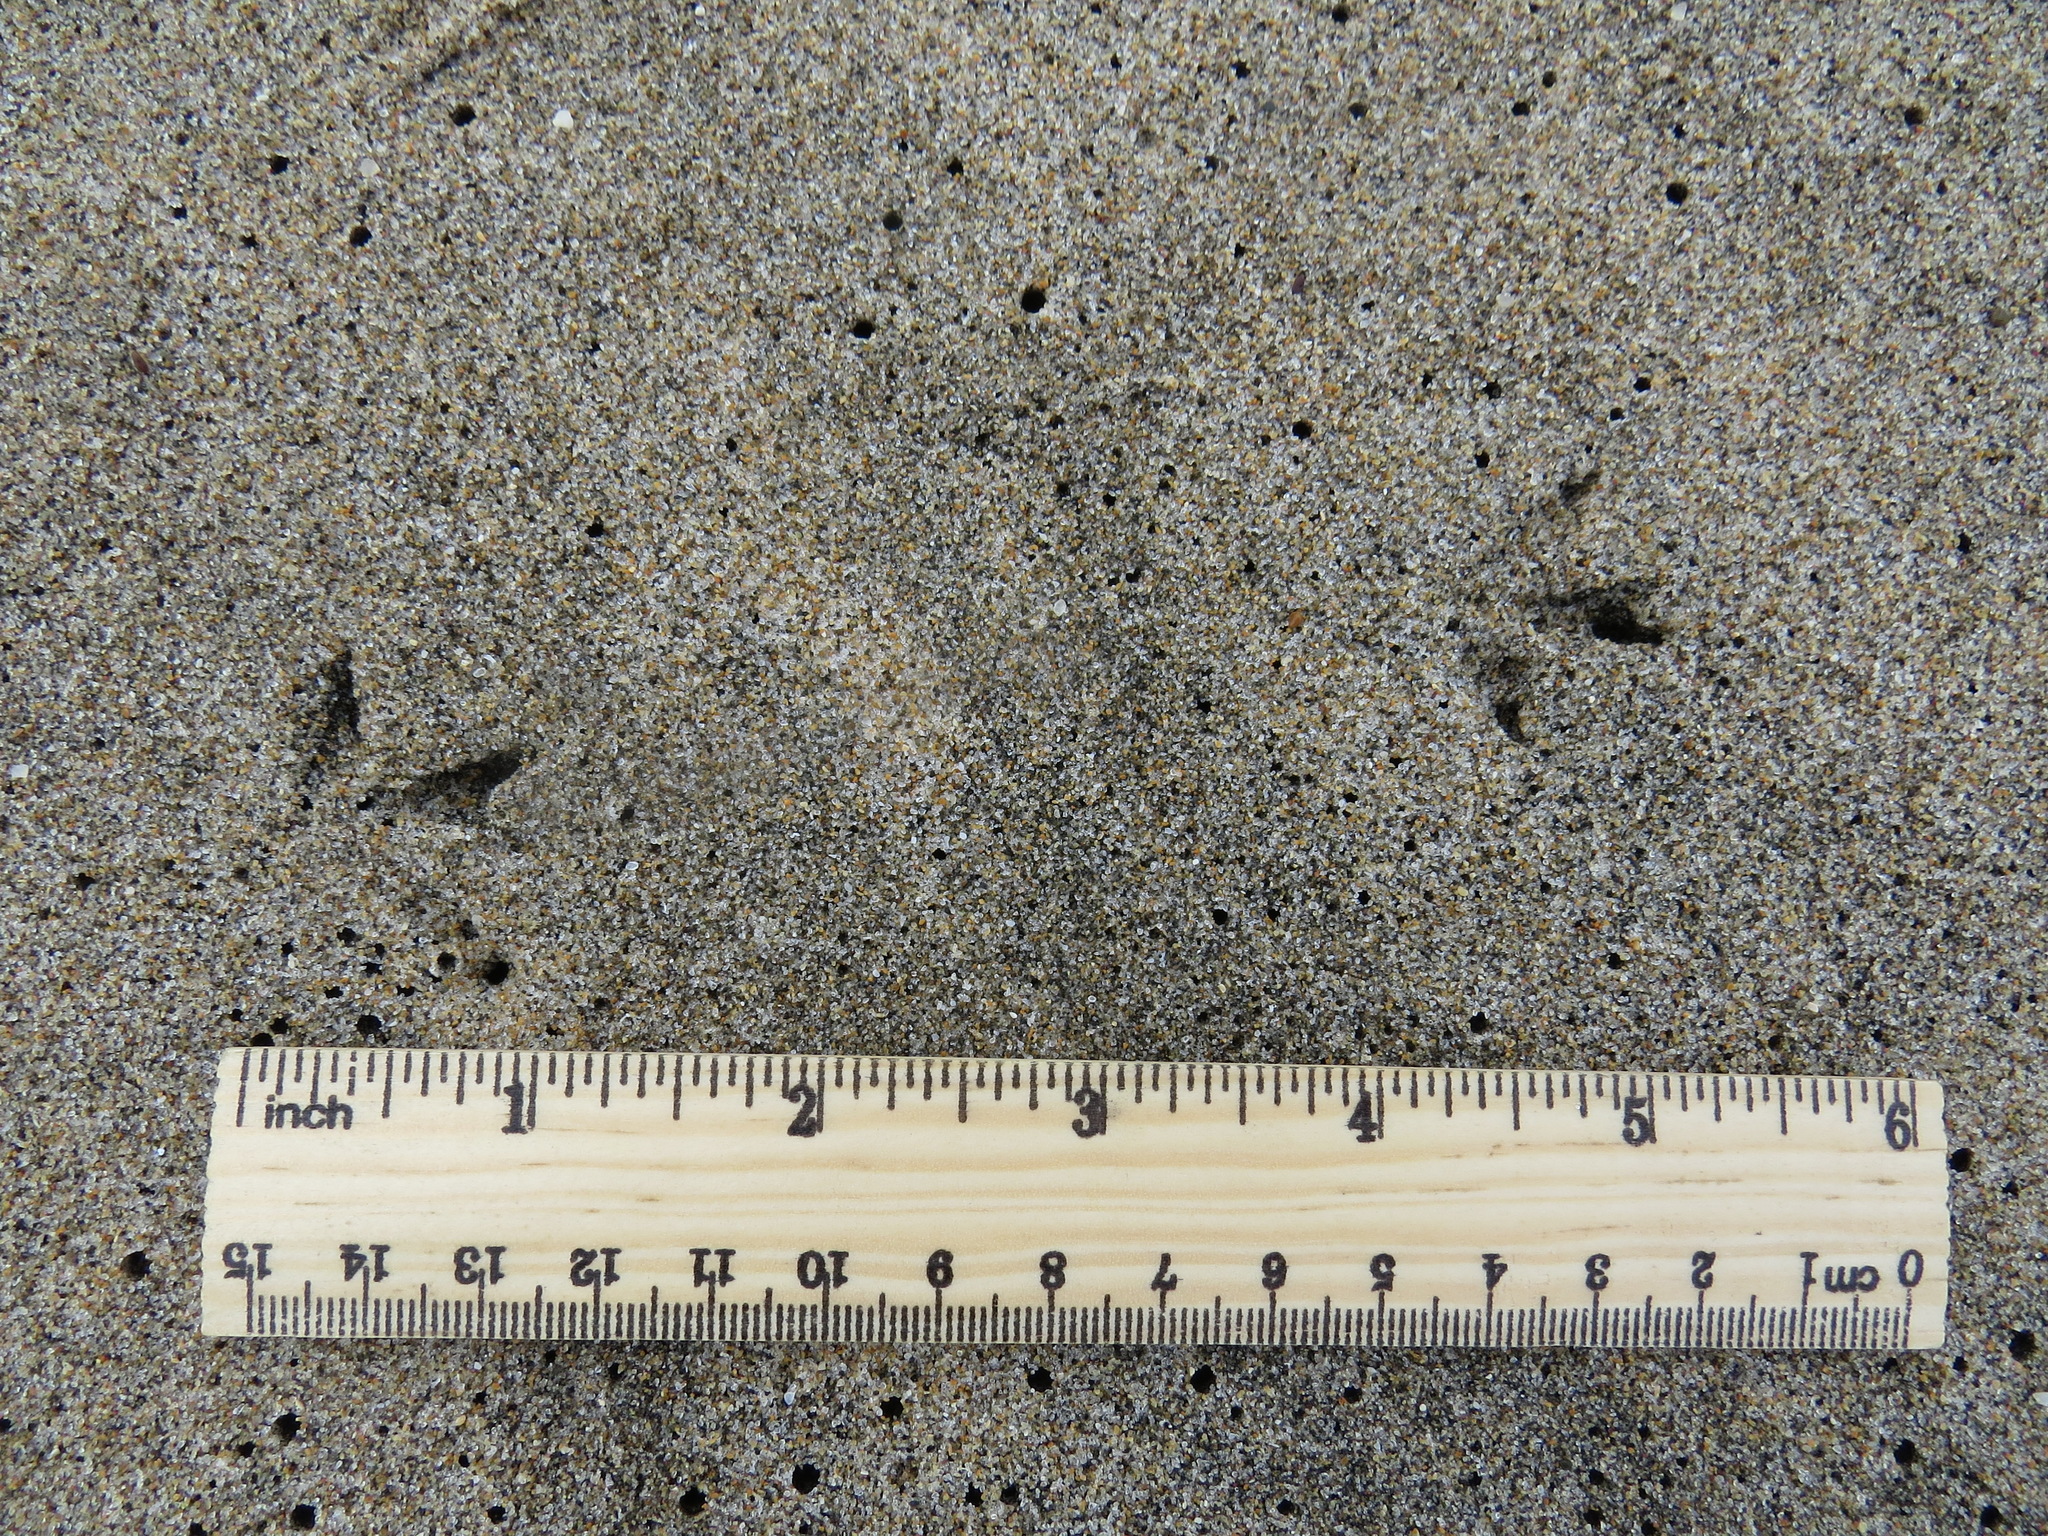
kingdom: Animalia
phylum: Chordata
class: Aves
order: Charadriiformes
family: Scolopacidae
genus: Calidris
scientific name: Calidris alba
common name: Sanderling
